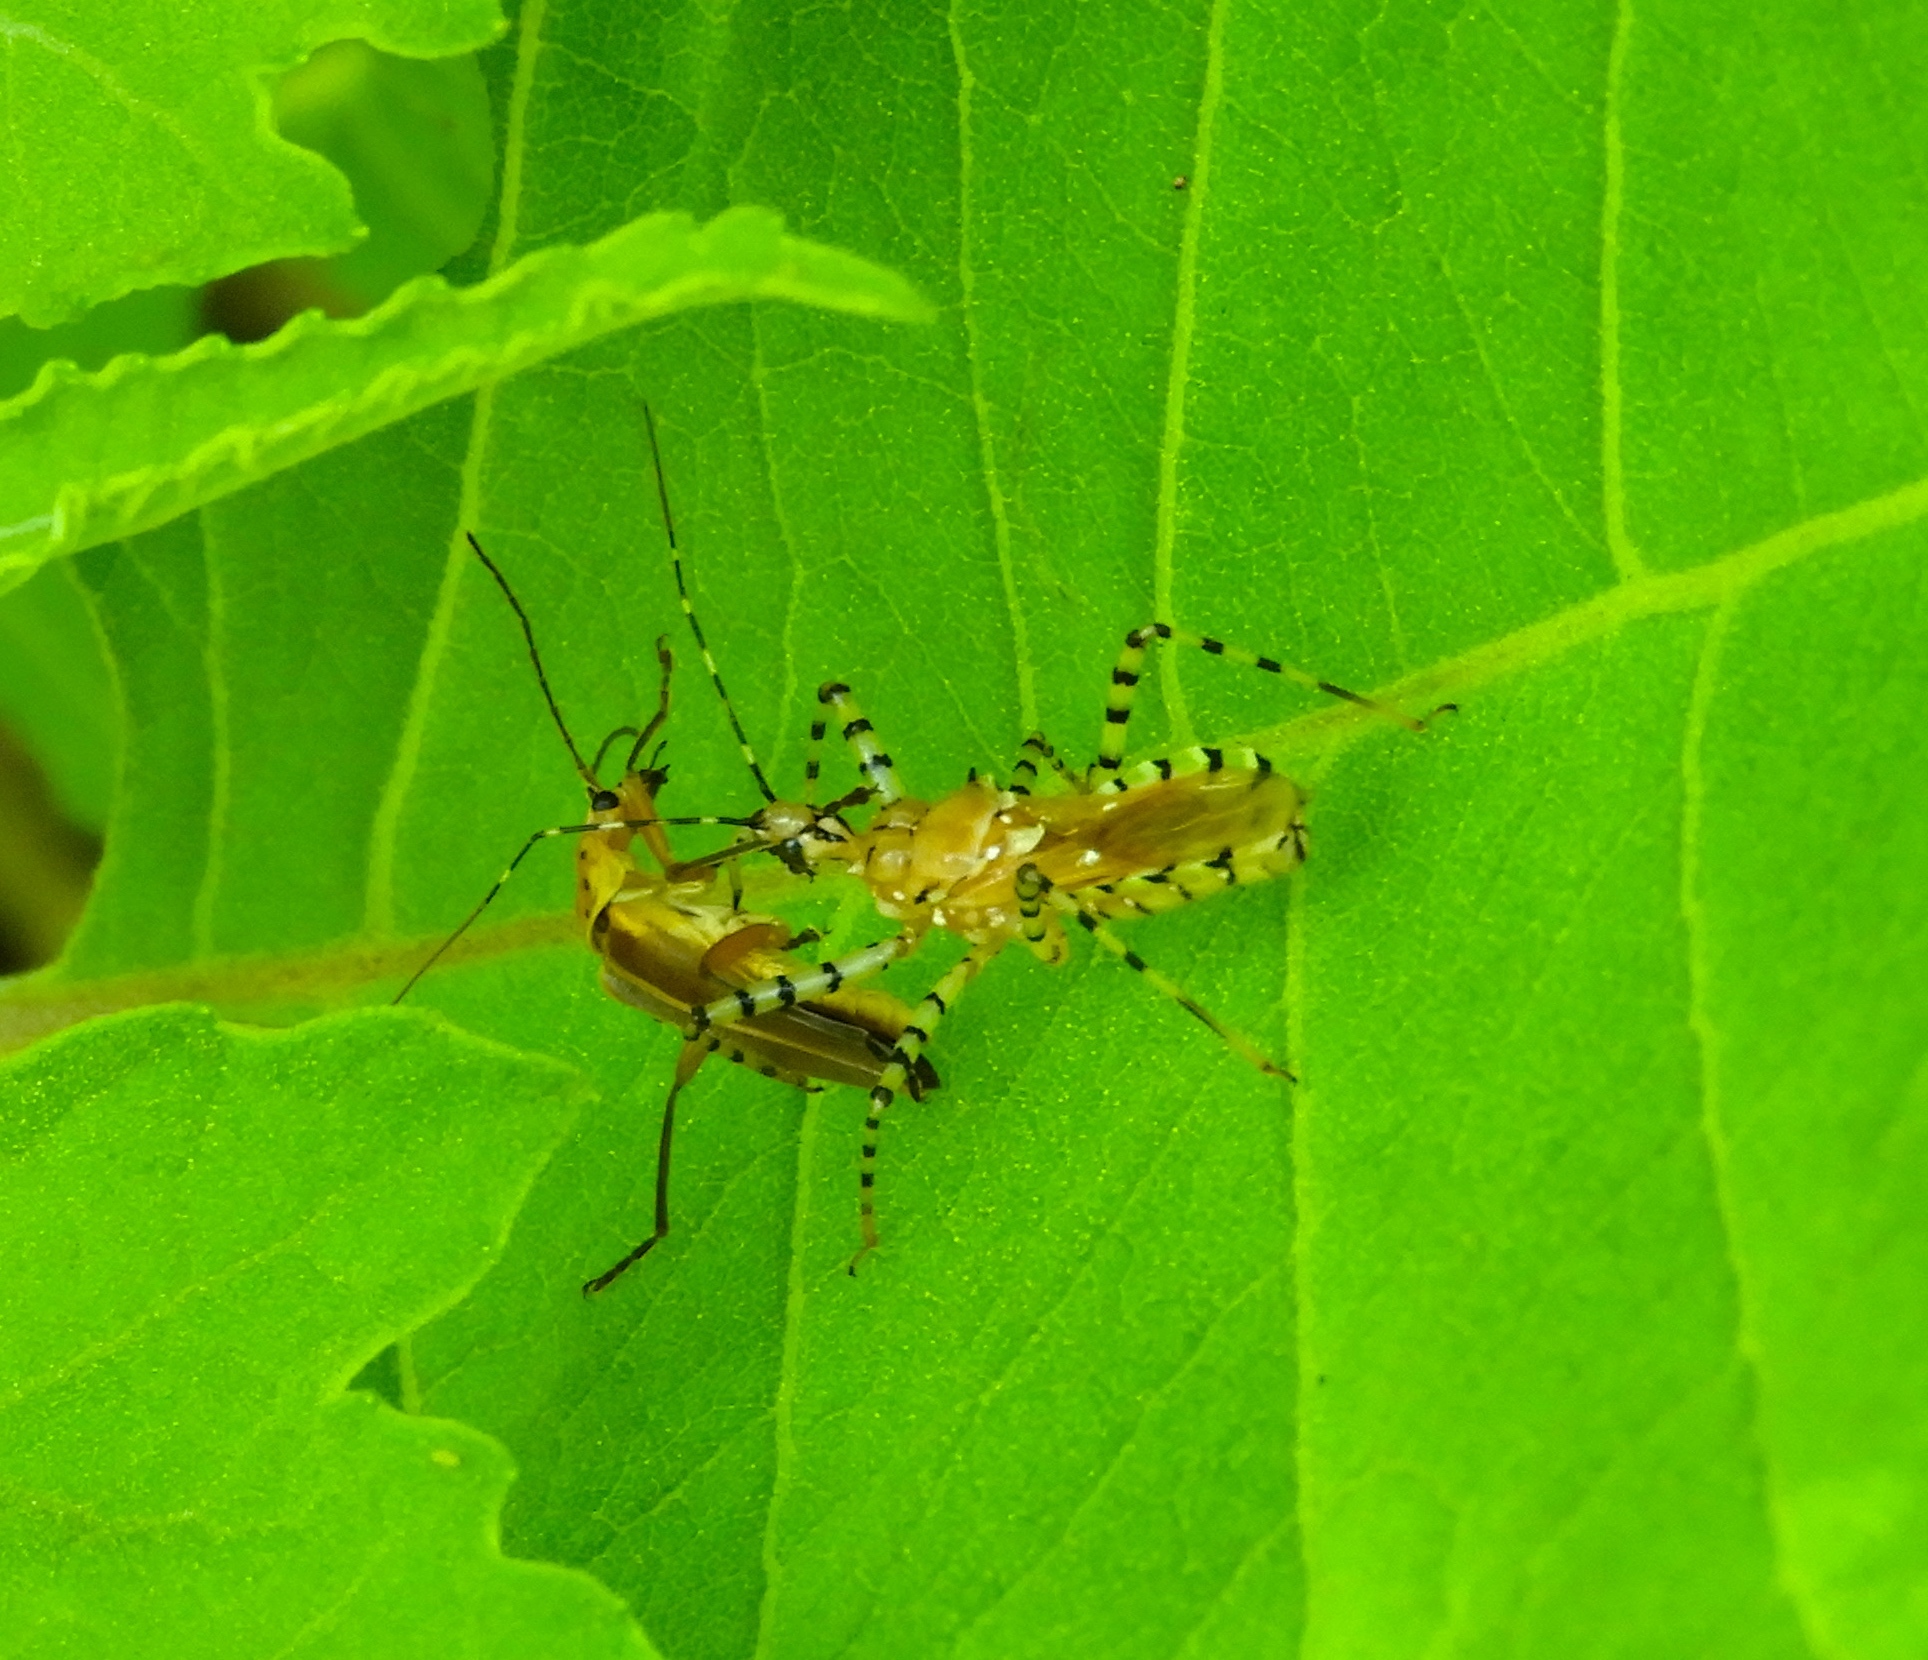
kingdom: Animalia
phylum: Arthropoda
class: Insecta
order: Hemiptera
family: Reduviidae
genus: Pselliopus
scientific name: Pselliopus
